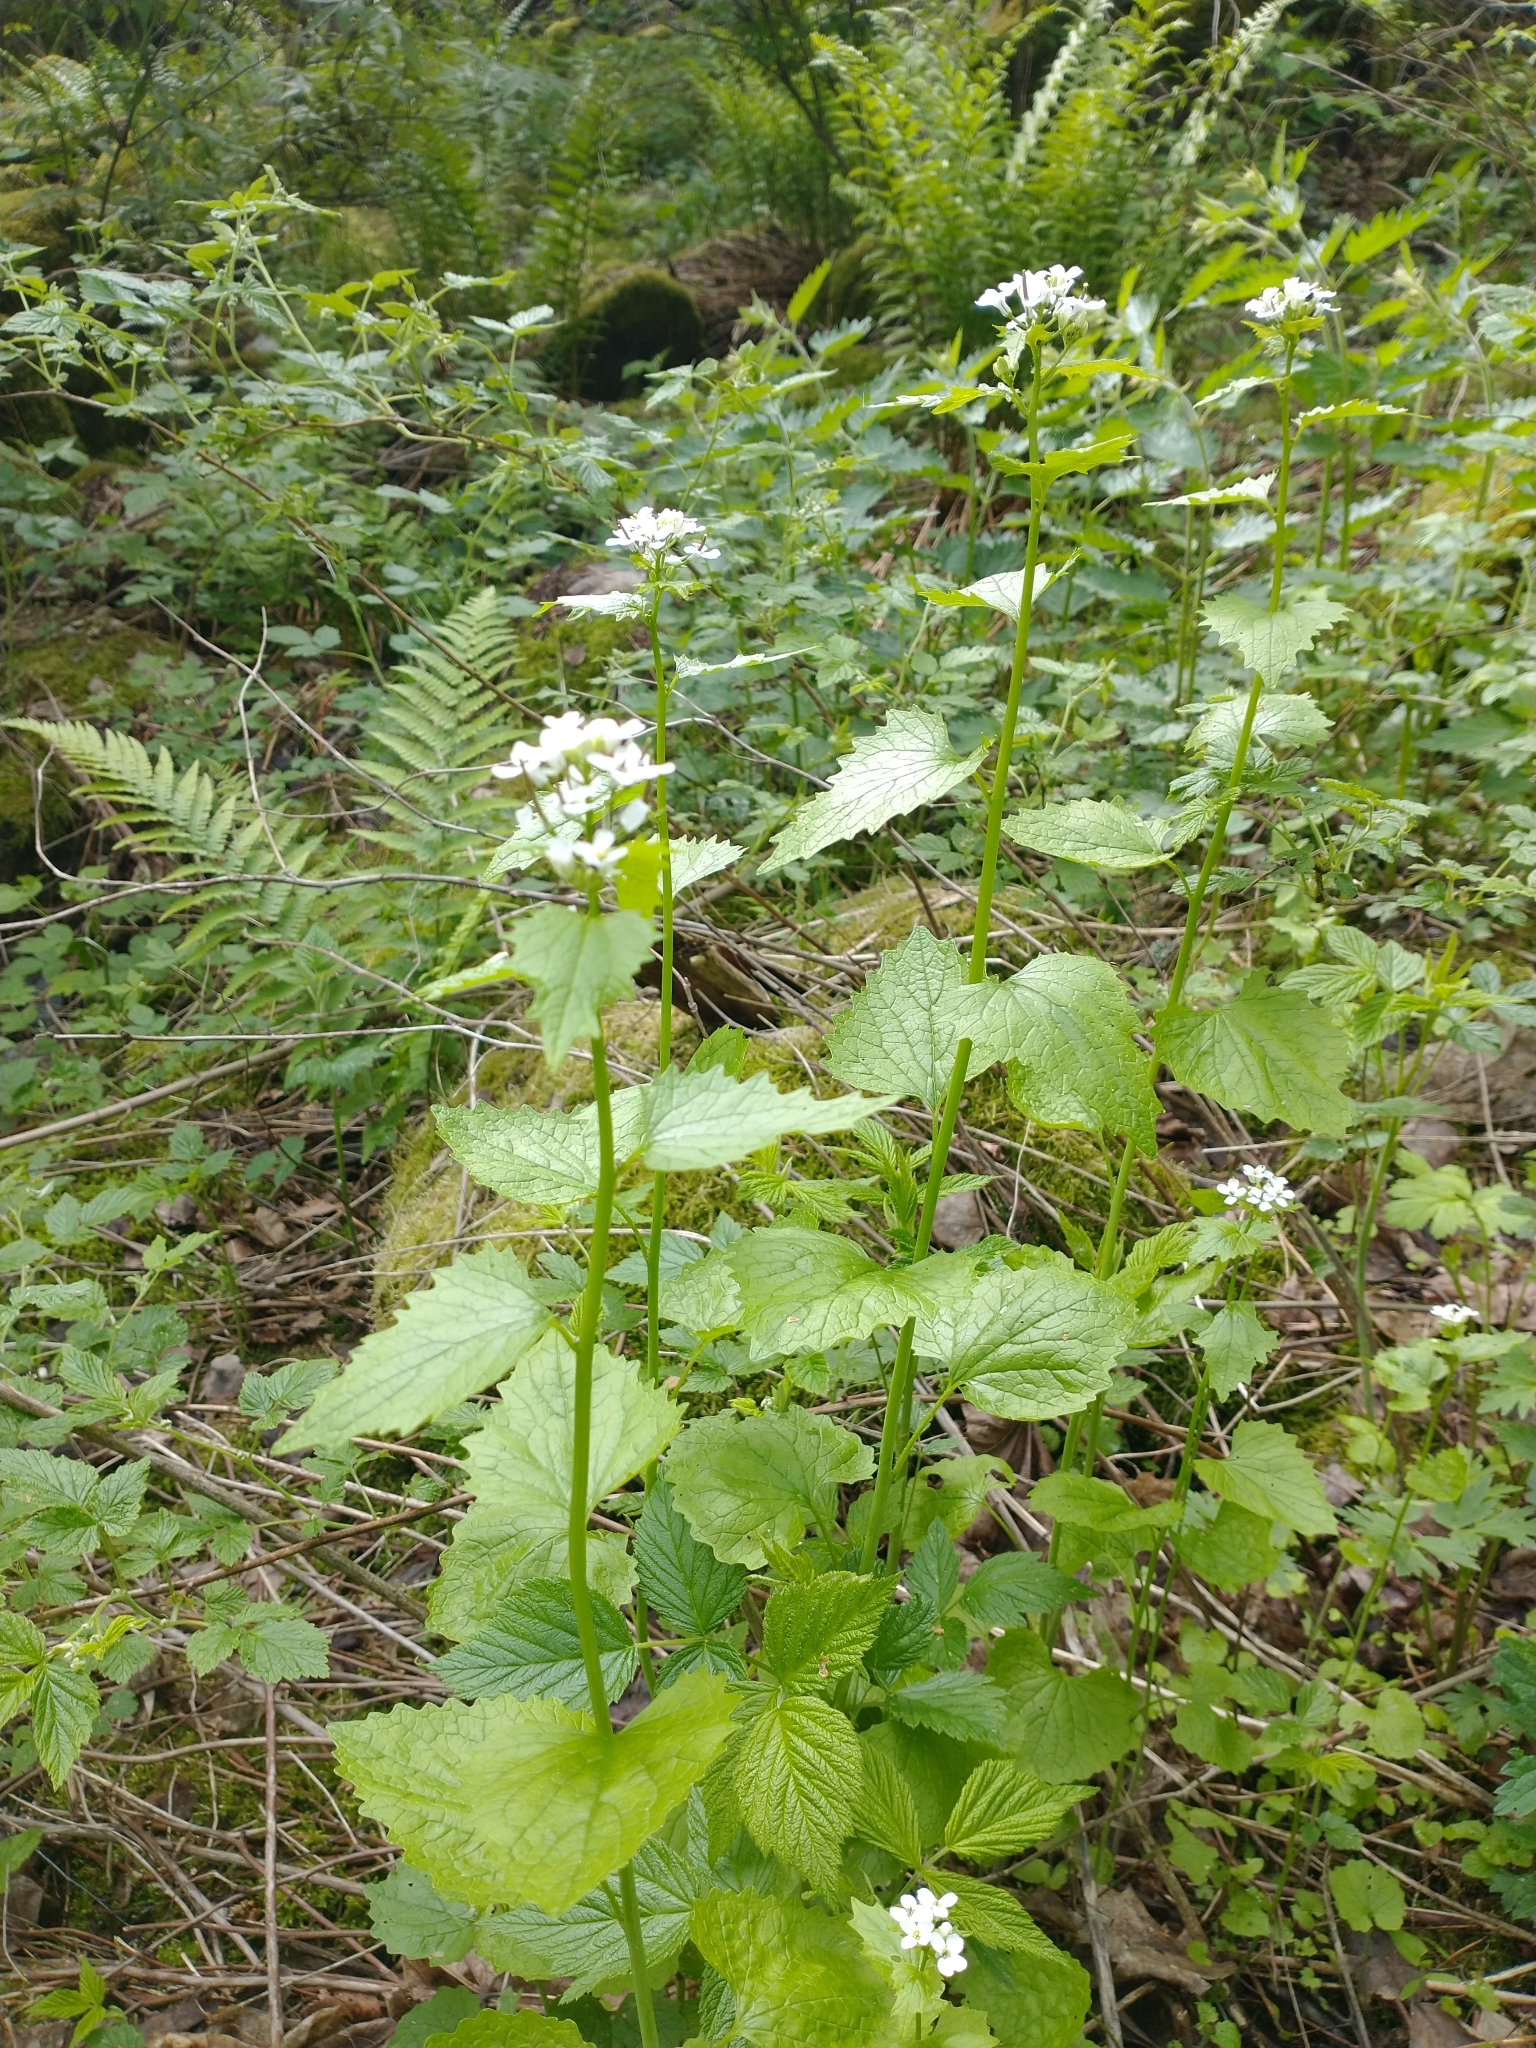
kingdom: Plantae
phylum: Tracheophyta
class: Magnoliopsida
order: Brassicales
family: Brassicaceae
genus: Alliaria
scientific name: Alliaria petiolata
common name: Garlic mustard
